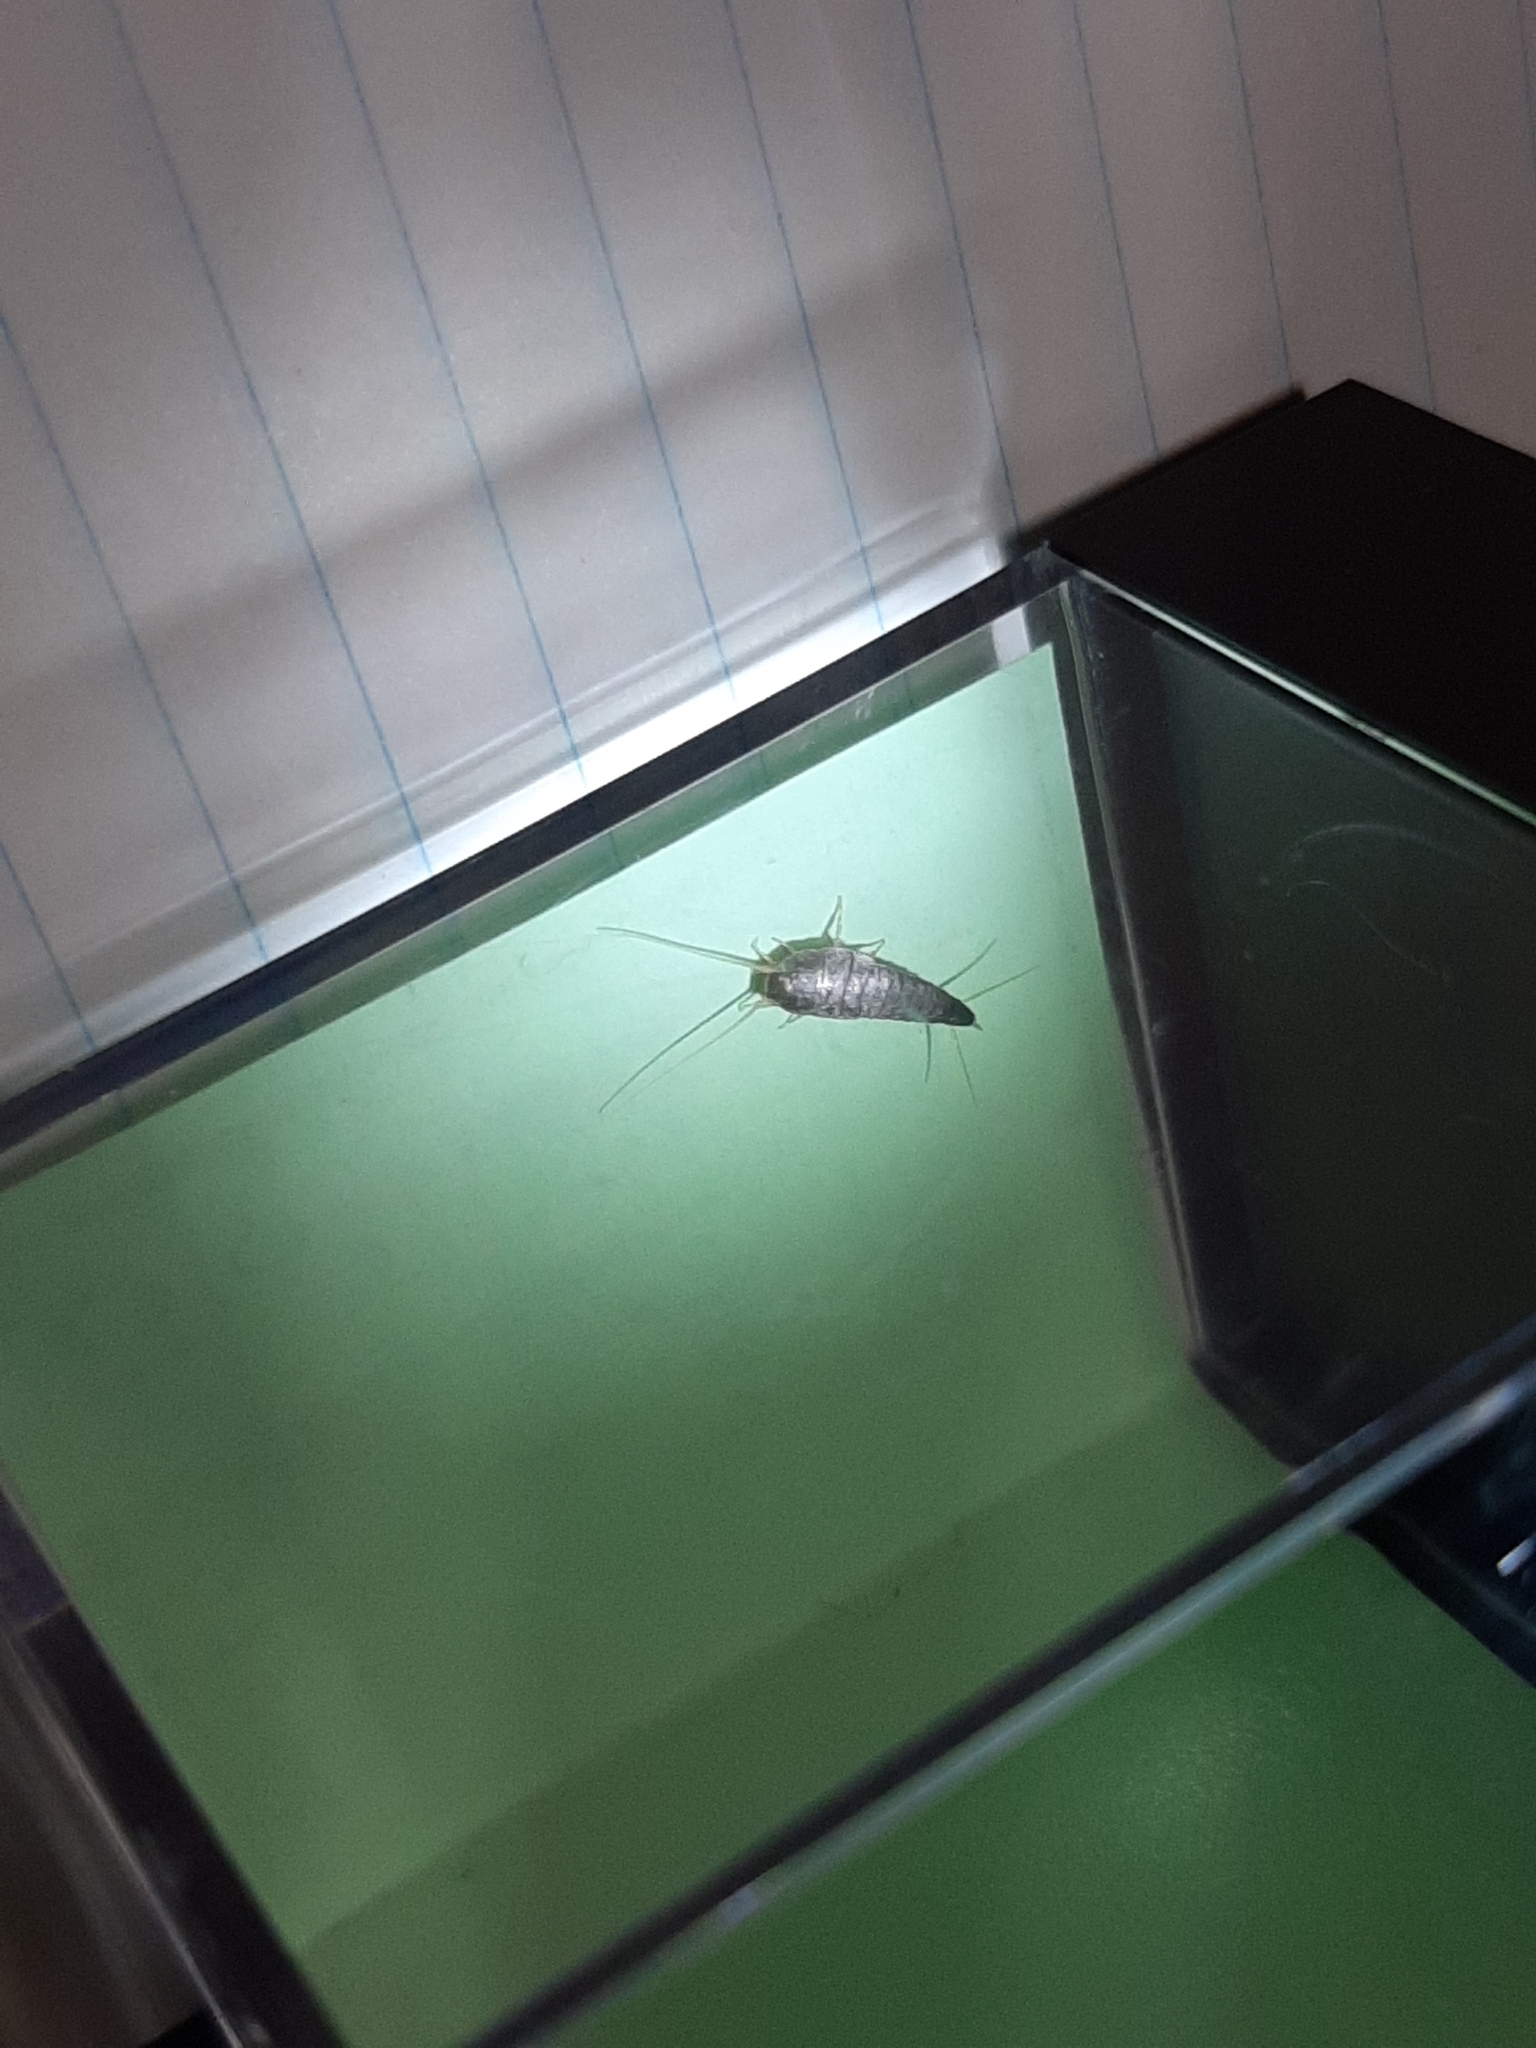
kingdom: Animalia
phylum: Arthropoda
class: Insecta
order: Zygentoma
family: Lepismatidae
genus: Lepisma
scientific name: Lepisma saccharinum
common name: Silverfish
